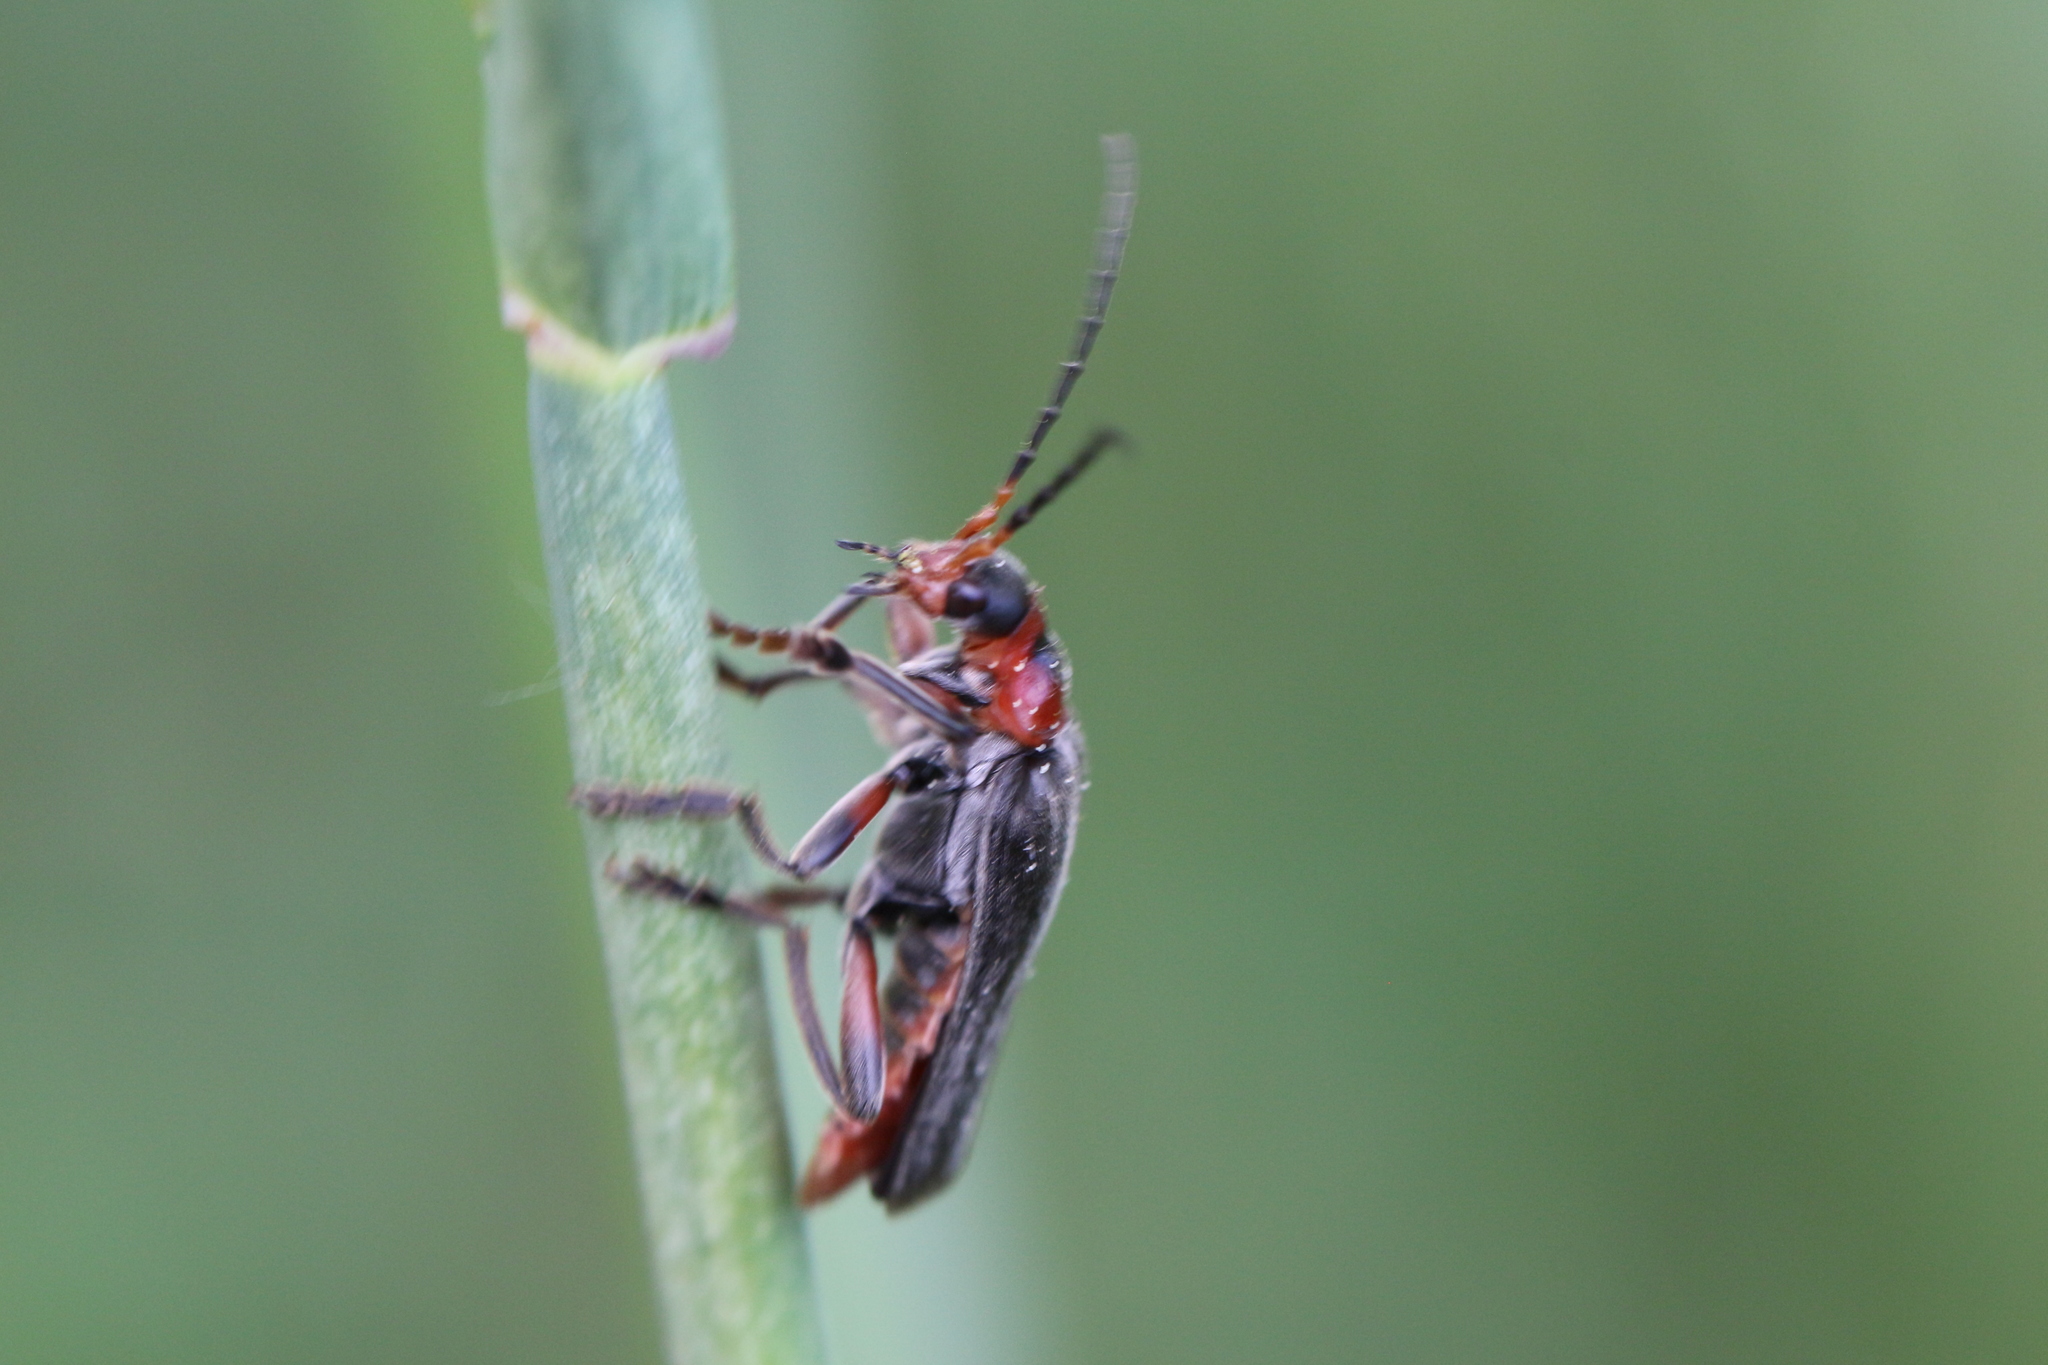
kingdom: Animalia
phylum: Arthropoda
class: Insecta
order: Coleoptera
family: Cantharidae
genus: Cantharis
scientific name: Cantharis rustica
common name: Soldier beetle
